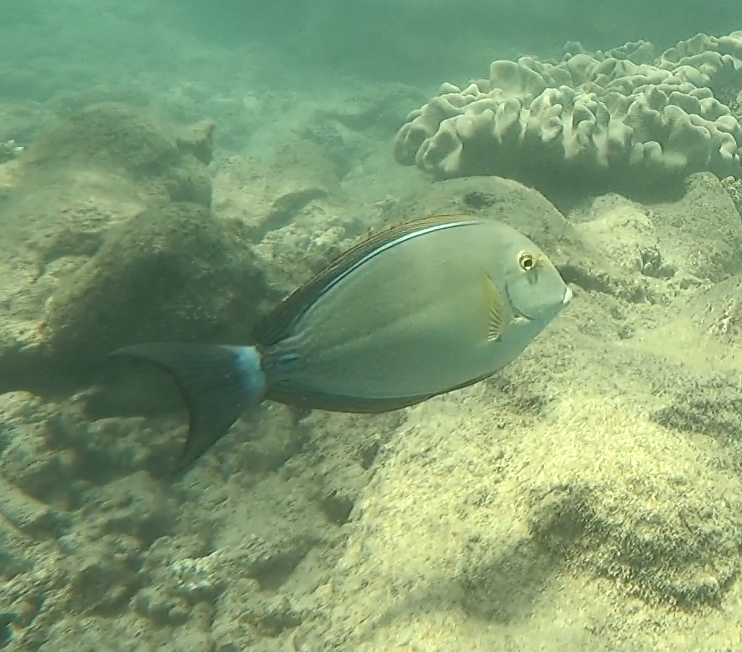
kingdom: Animalia
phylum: Chordata
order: Perciformes
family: Acanthuridae
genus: Acanthurus
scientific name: Acanthurus xanthopterus
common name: Cuvier's surgeonfish
